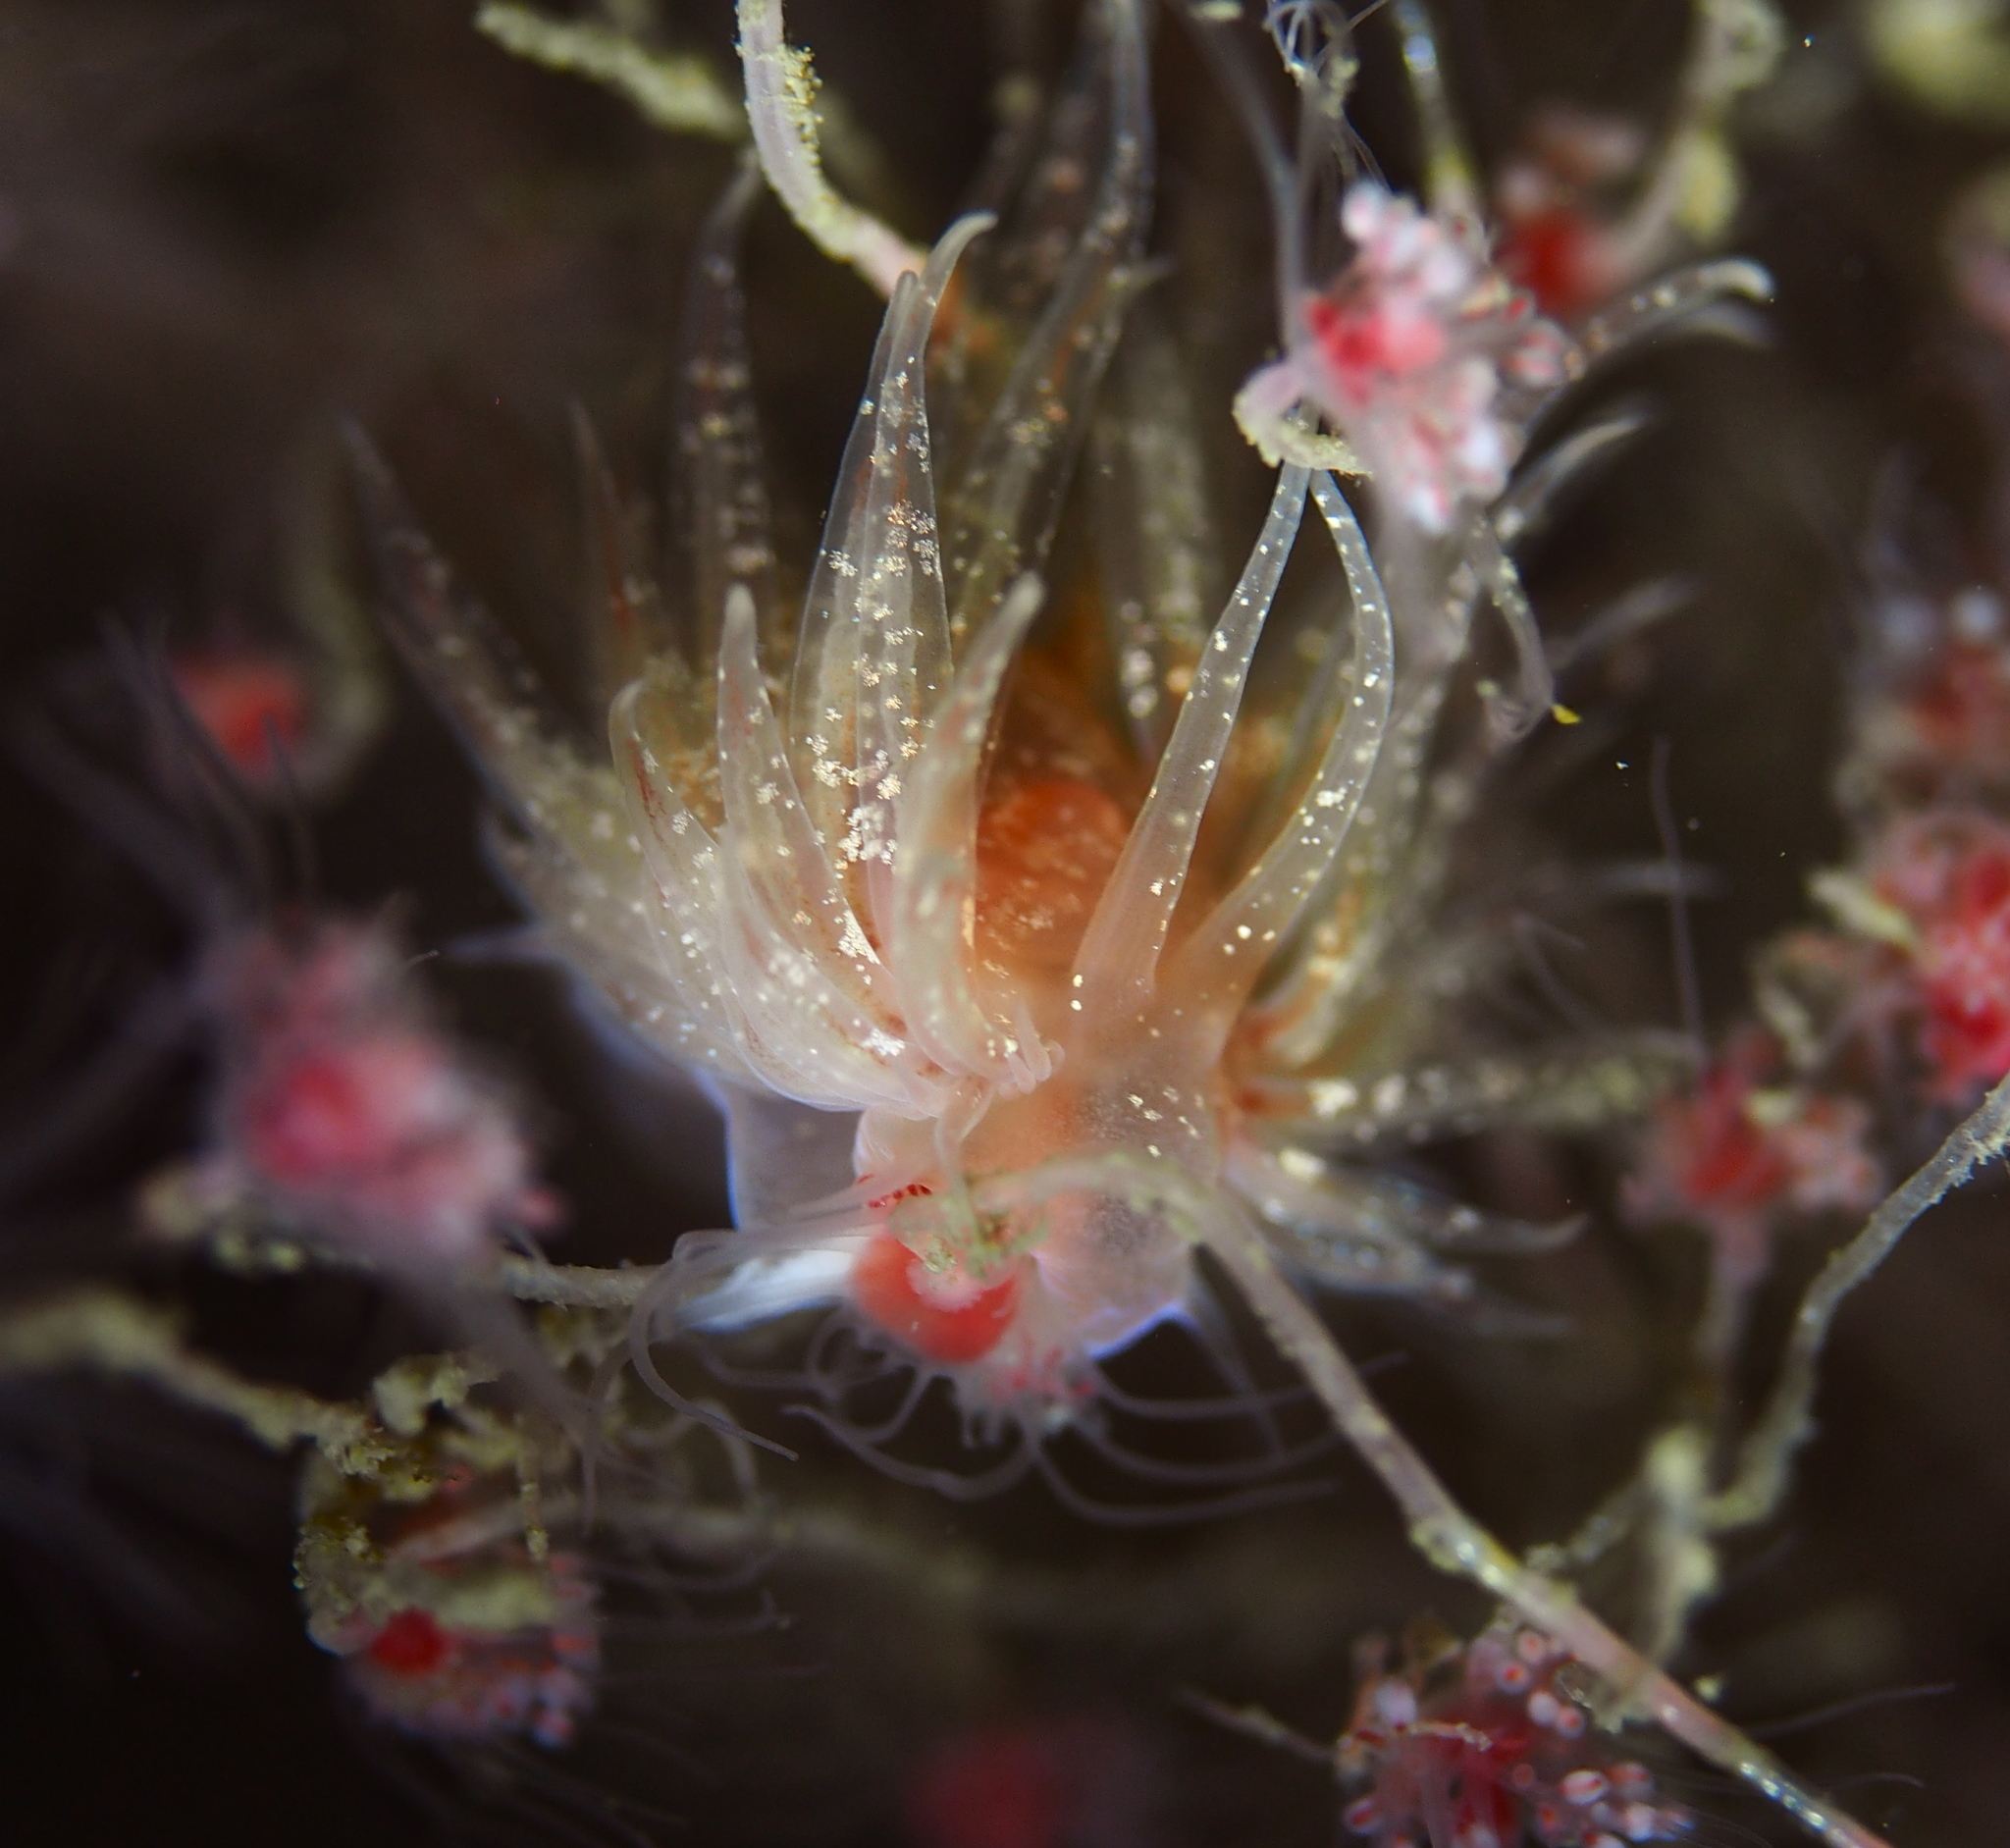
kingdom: Animalia
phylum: Mollusca
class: Gastropoda
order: Nudibranchia
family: Cumanotidae
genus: Cumanotus
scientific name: Cumanotus beaumonti
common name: Polyp aeolis
